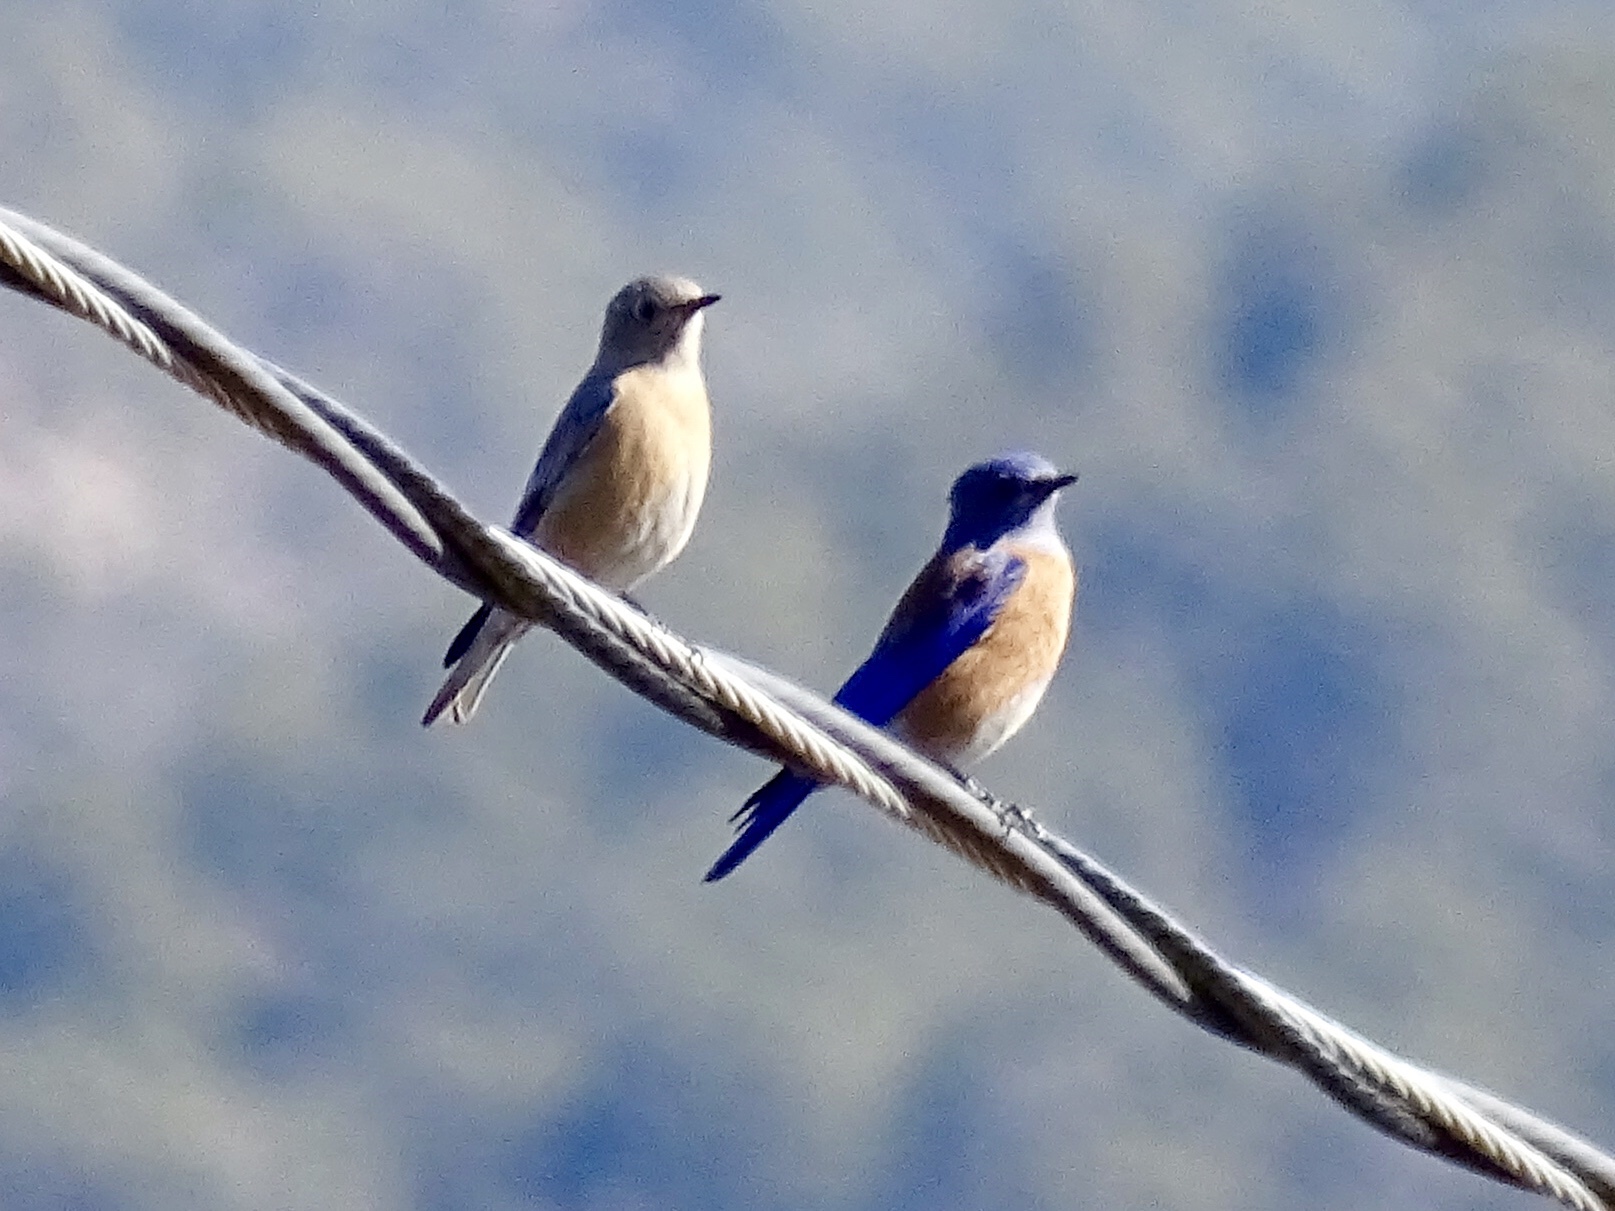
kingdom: Animalia
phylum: Chordata
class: Aves
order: Passeriformes
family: Turdidae
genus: Sialia
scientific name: Sialia mexicana
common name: Western bluebird
